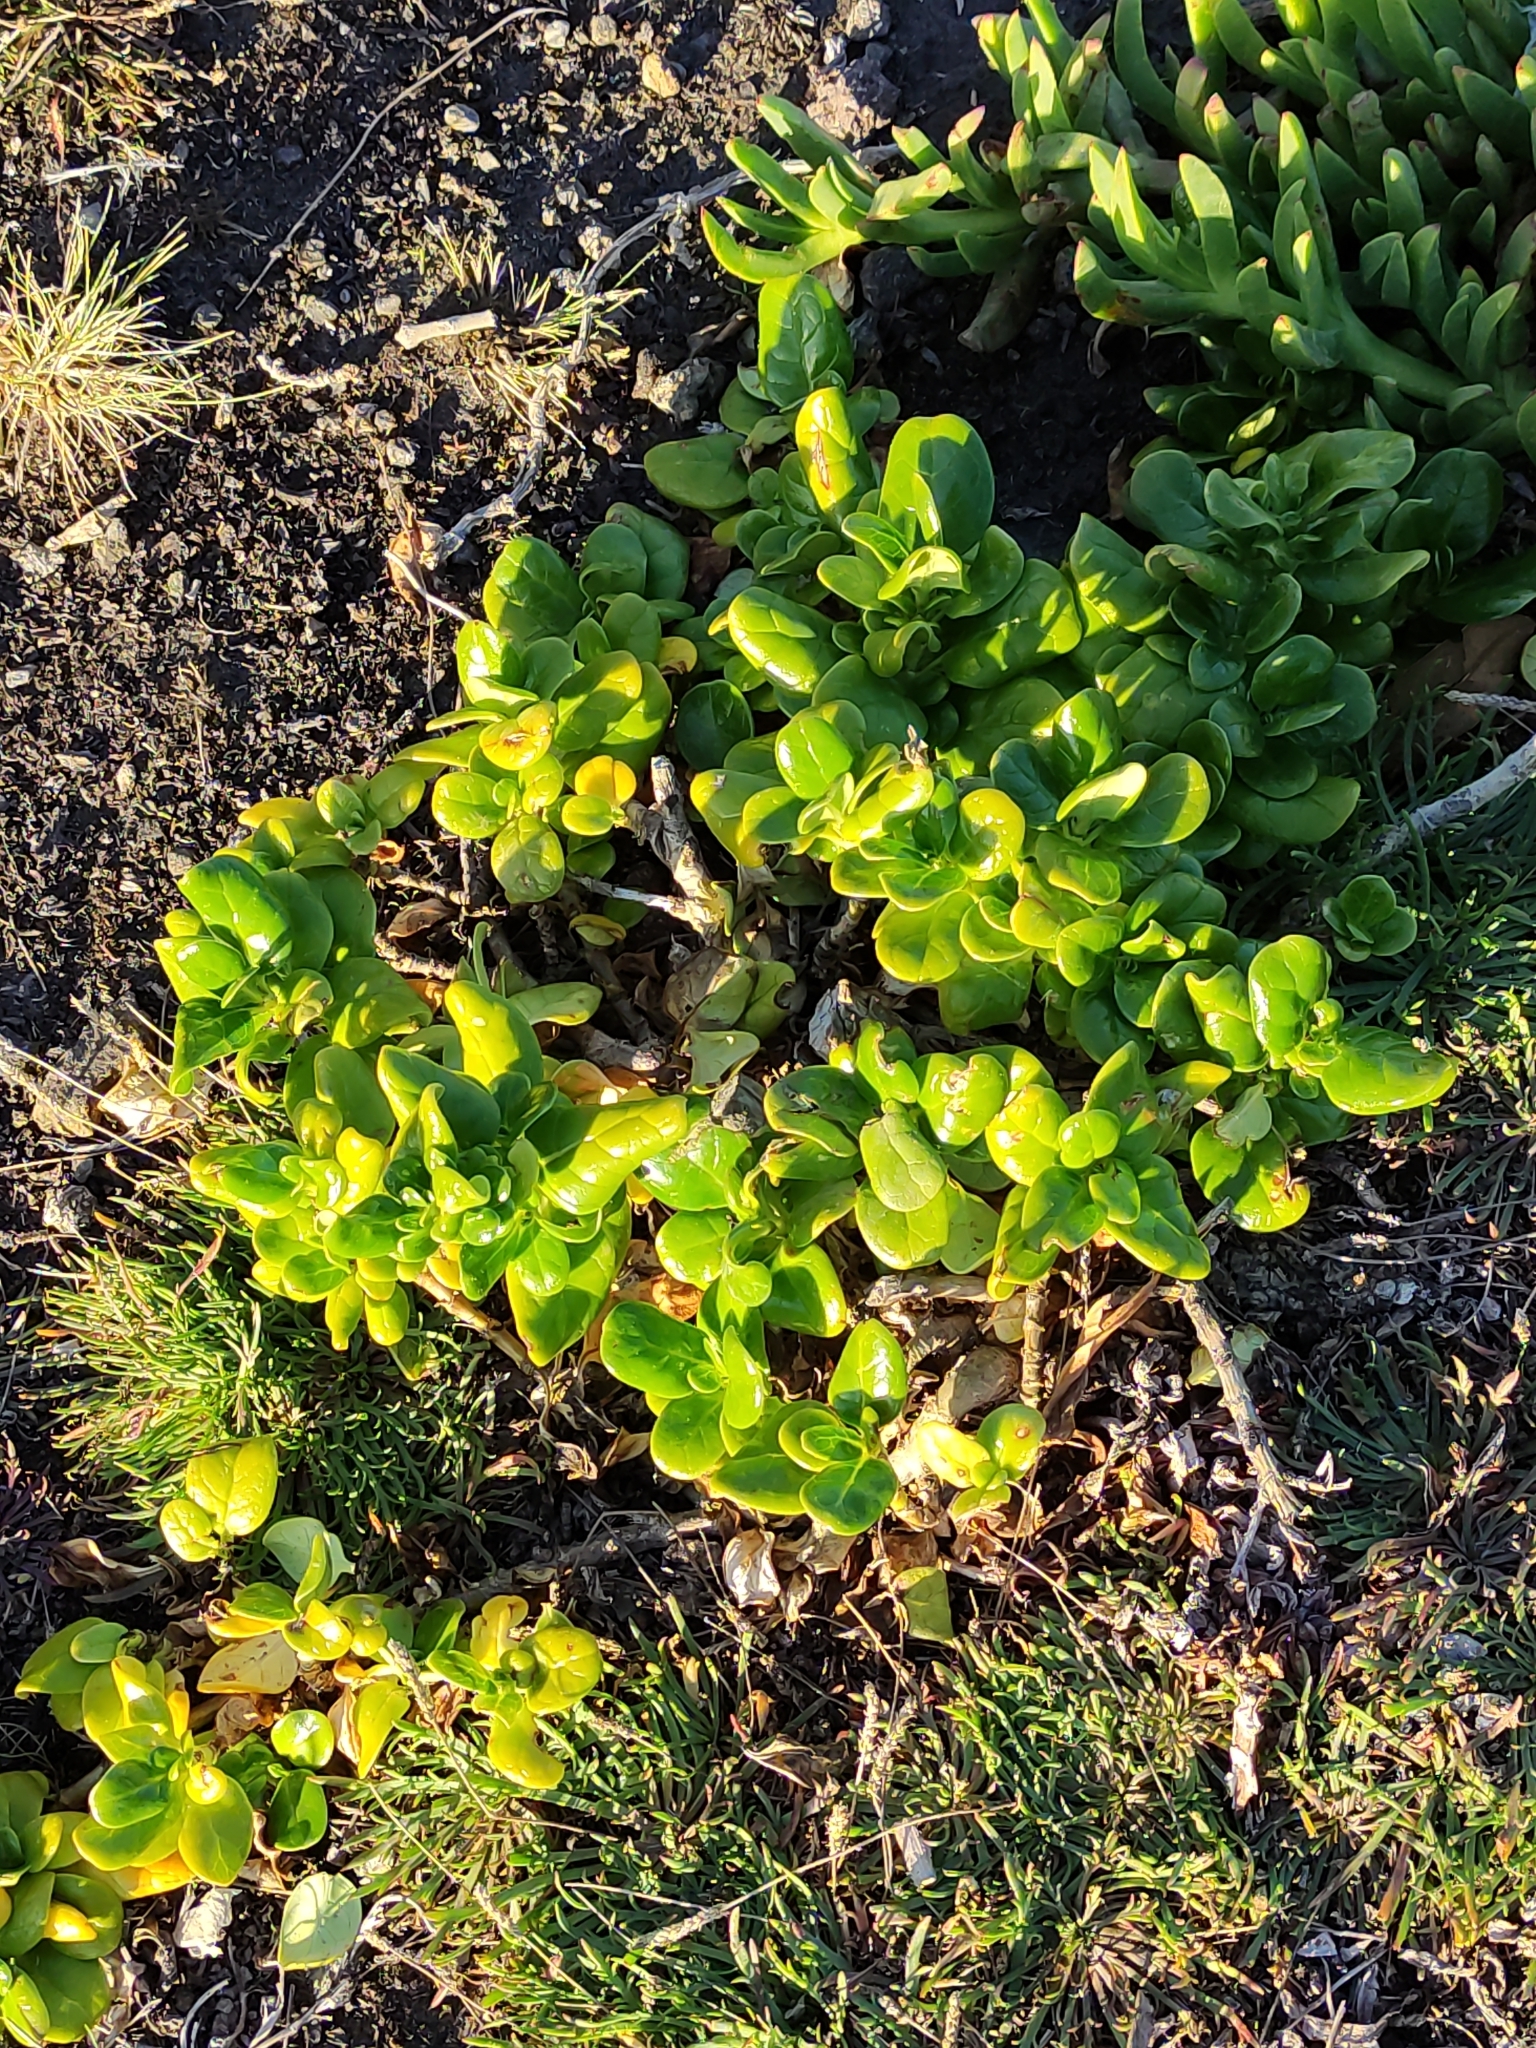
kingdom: Plantae
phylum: Tracheophyta
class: Magnoliopsida
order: Gentianales
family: Rubiaceae
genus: Coprosma
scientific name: Coprosma repens
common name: Tree bedstraw
